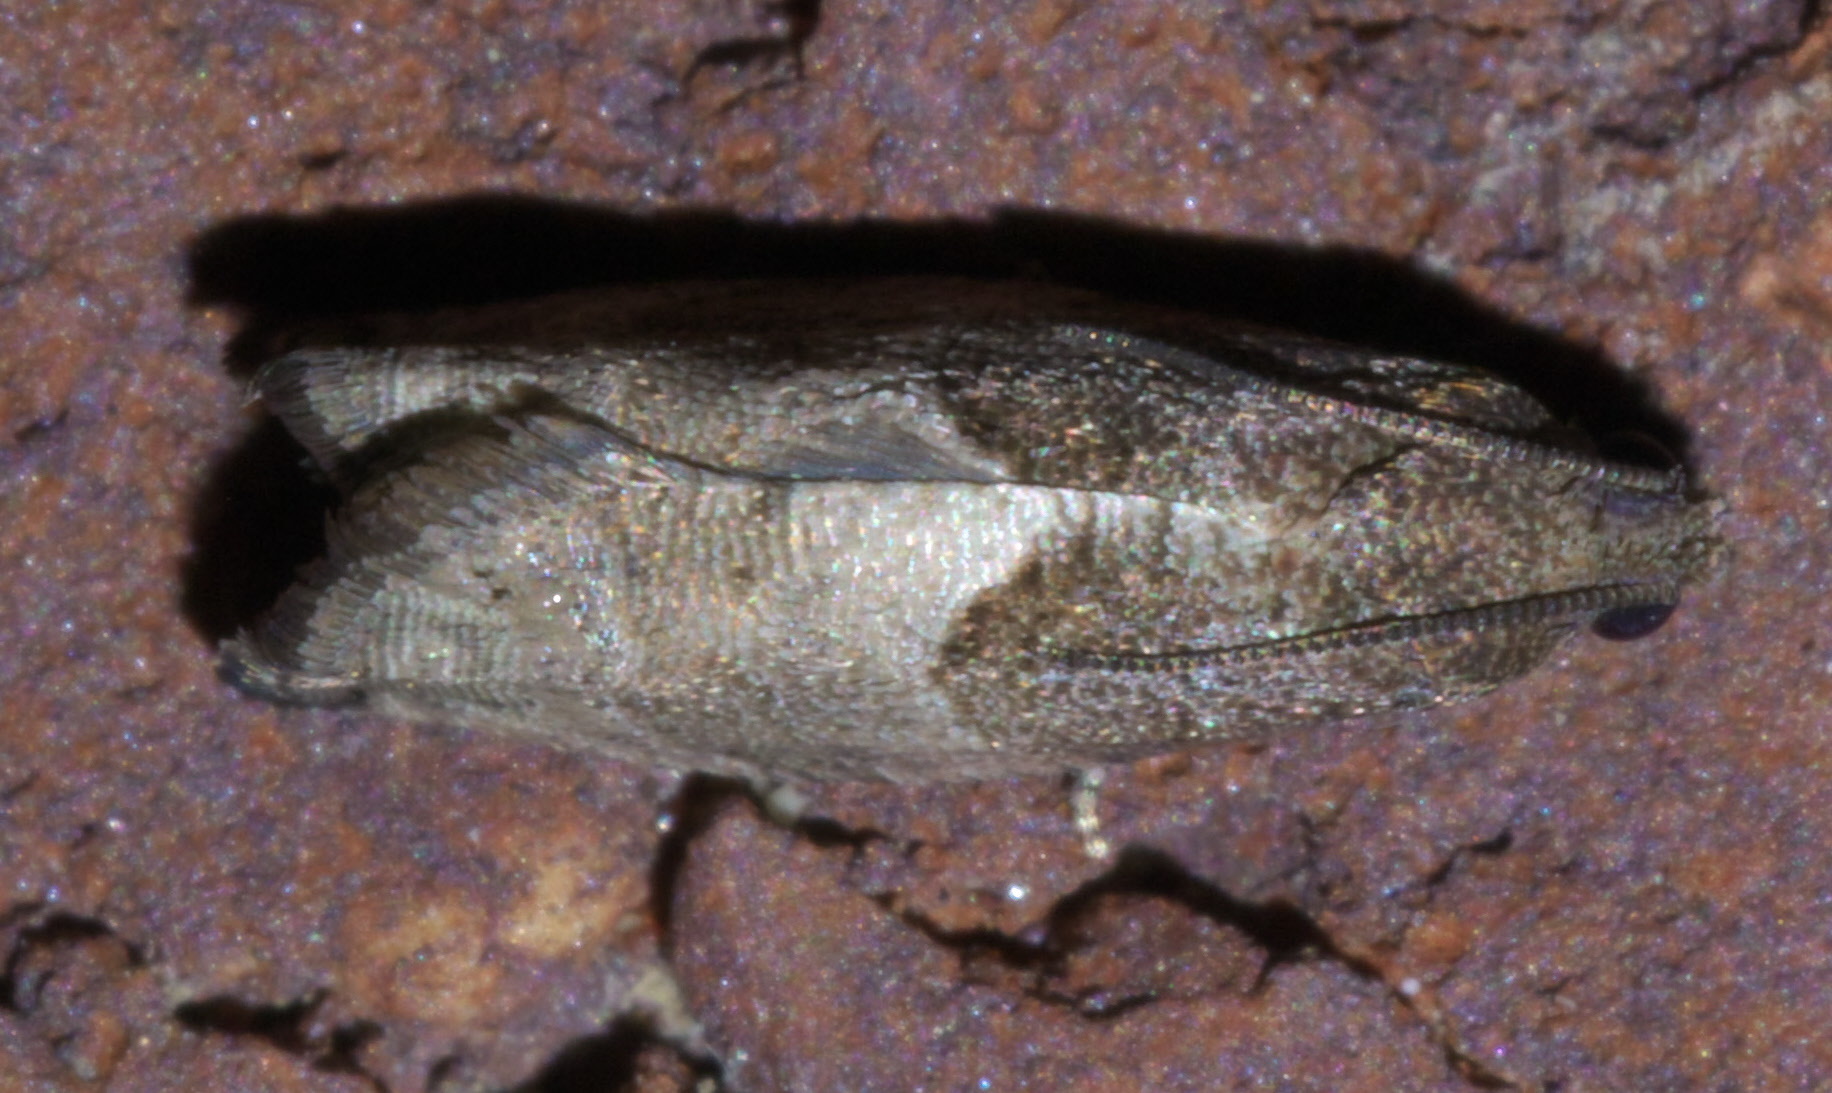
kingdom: Animalia
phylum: Arthropoda
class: Insecta
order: Lepidoptera
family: Tortricidae
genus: Gypsonoma
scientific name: Gypsonoma salicicolana
